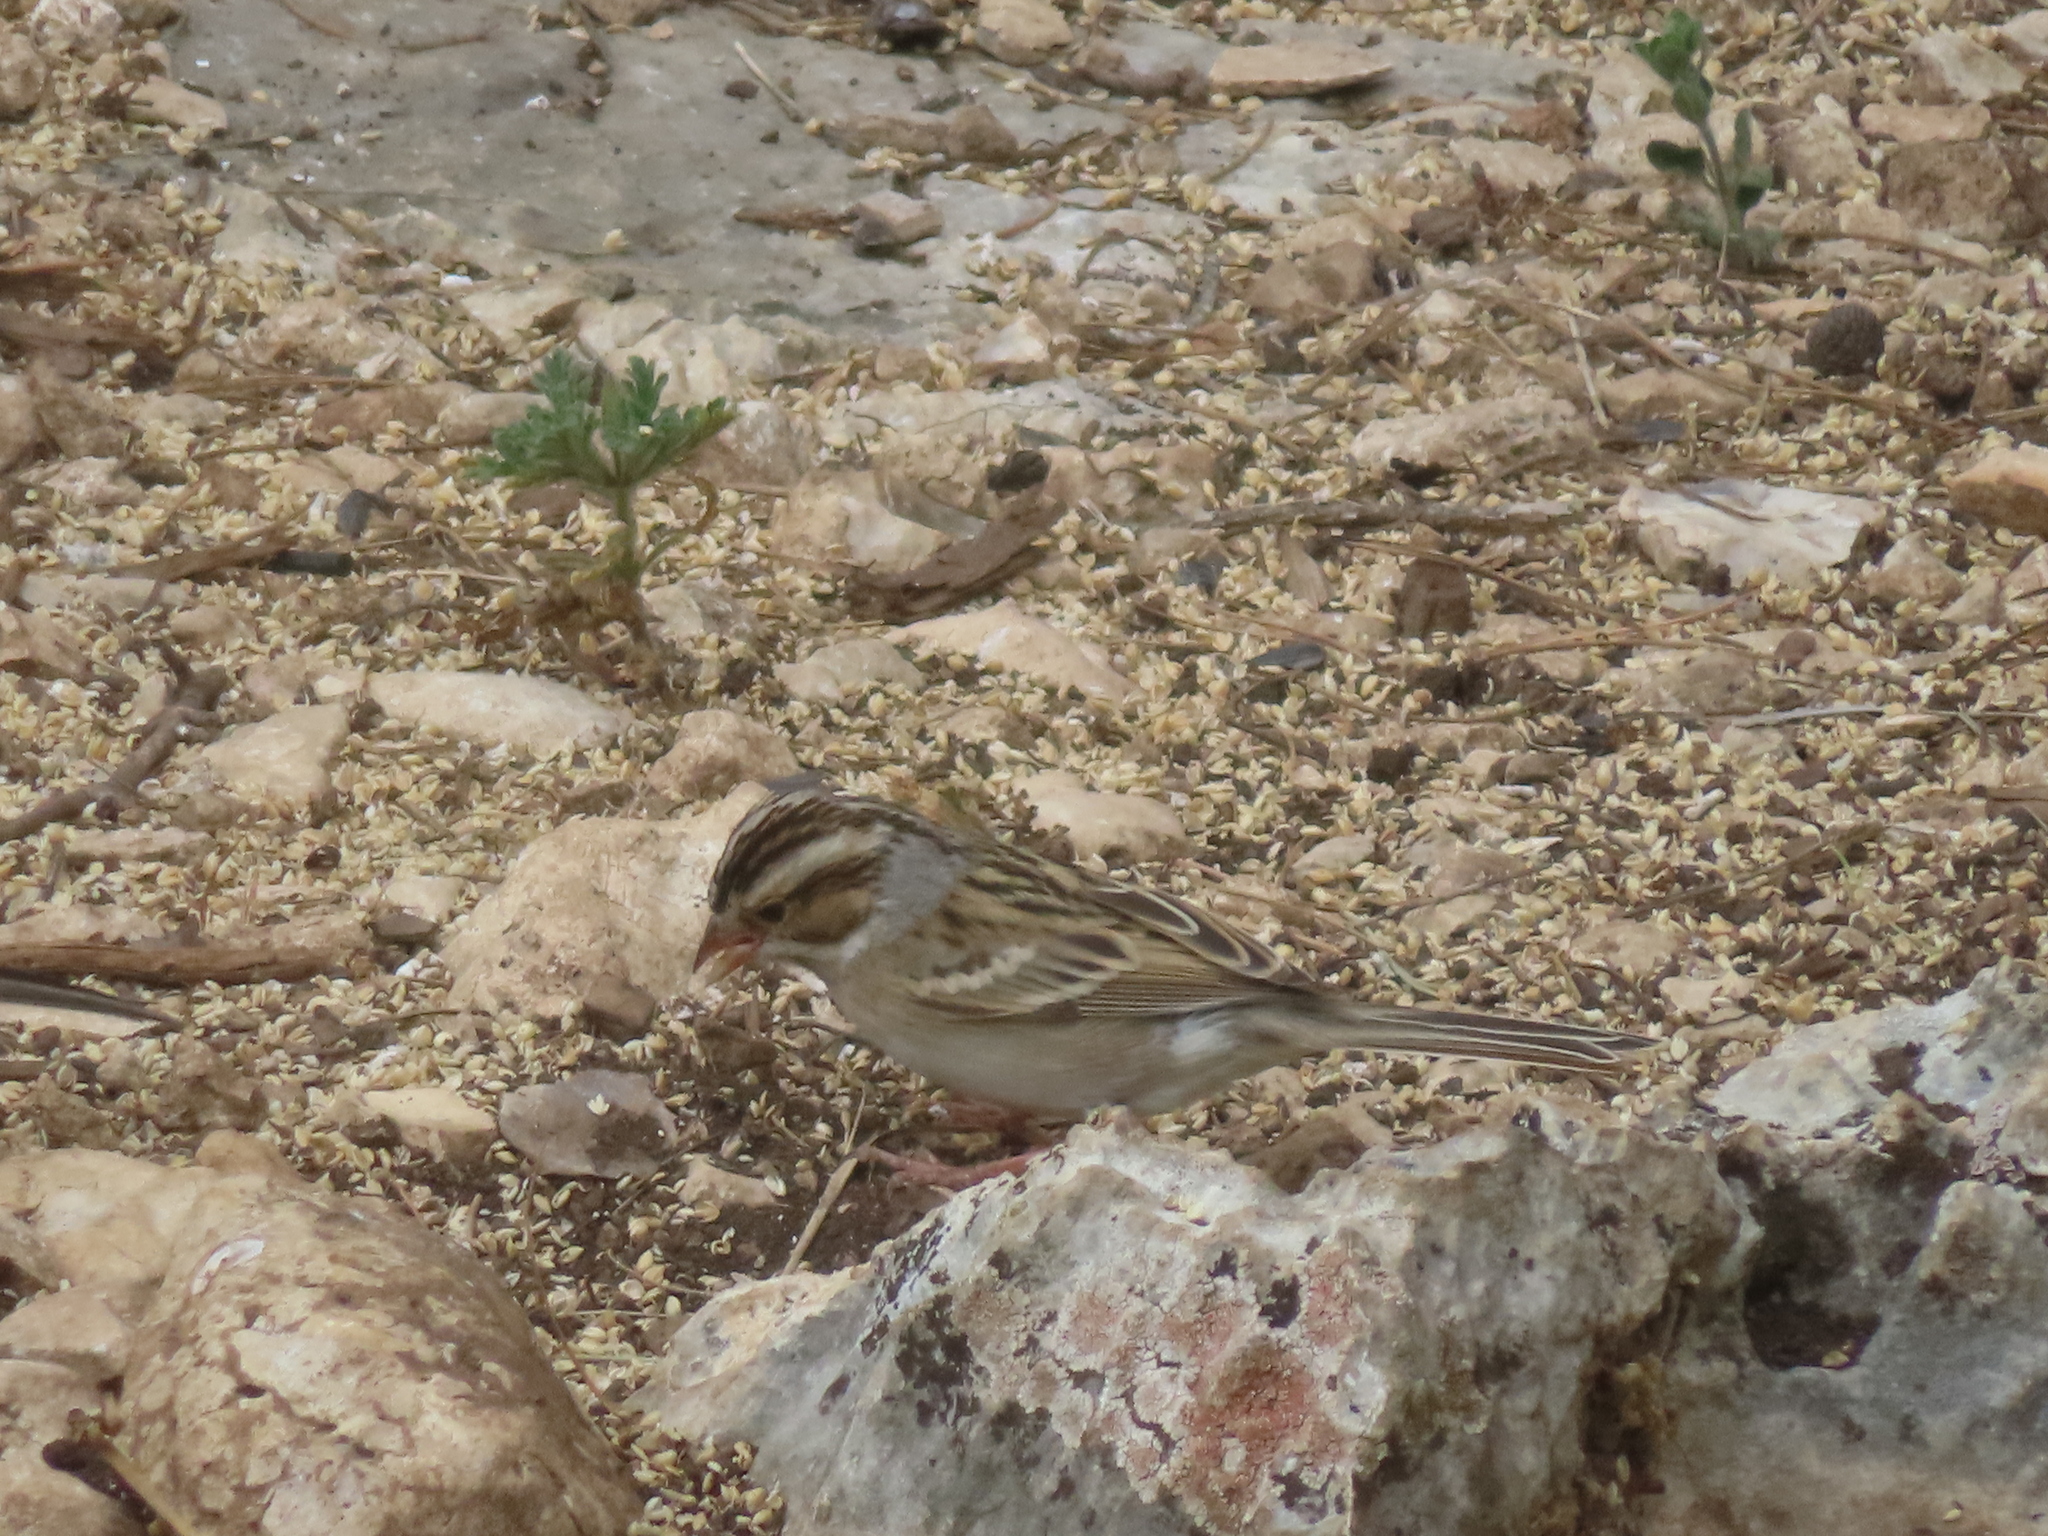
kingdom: Animalia
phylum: Chordata
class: Aves
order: Passeriformes
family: Passerellidae
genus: Spizella
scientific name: Spizella pallida
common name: Clay-colored sparrow
